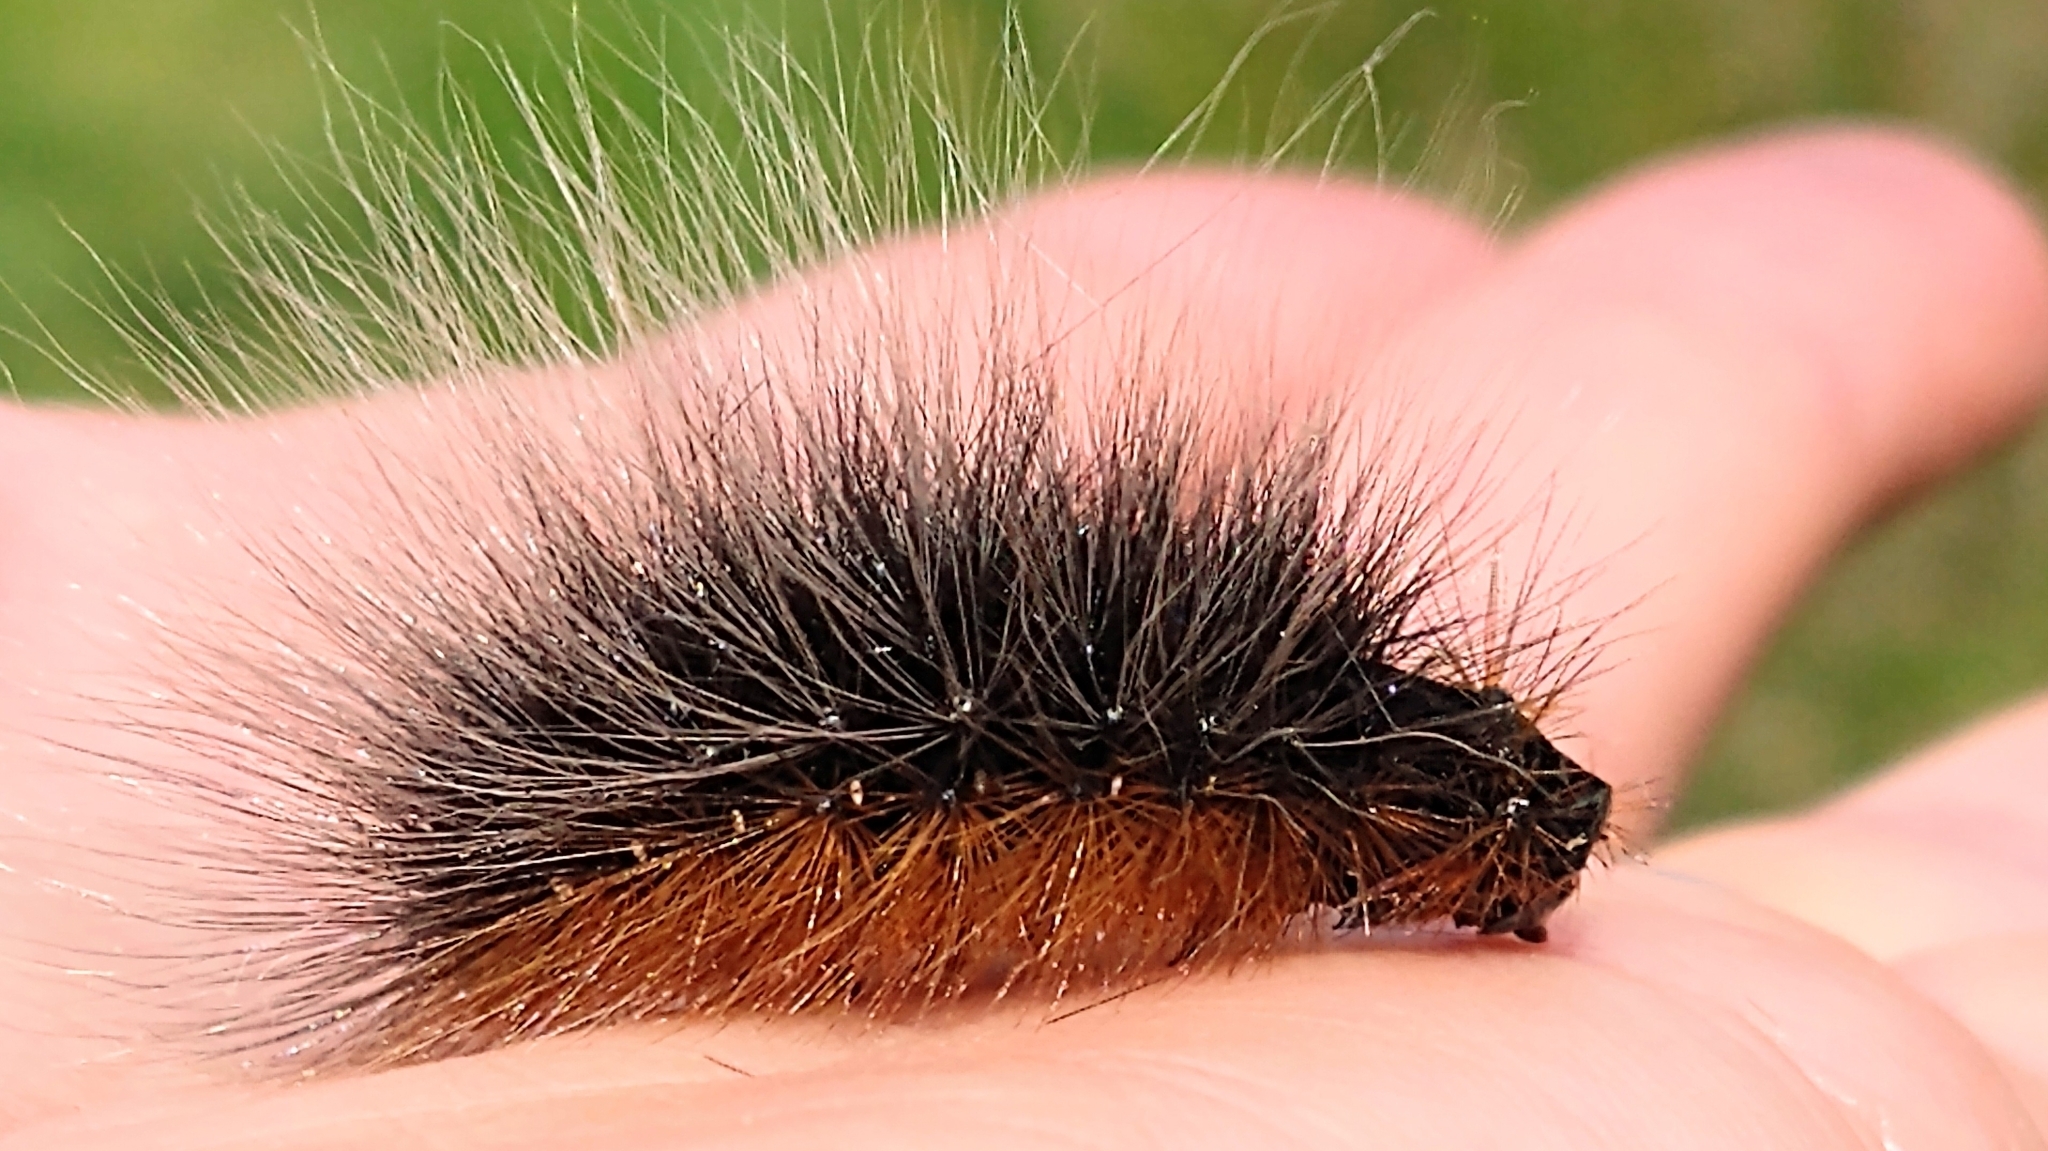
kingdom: Animalia
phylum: Arthropoda
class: Insecta
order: Lepidoptera
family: Erebidae
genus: Arctia
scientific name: Arctia caja
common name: Garden tiger
